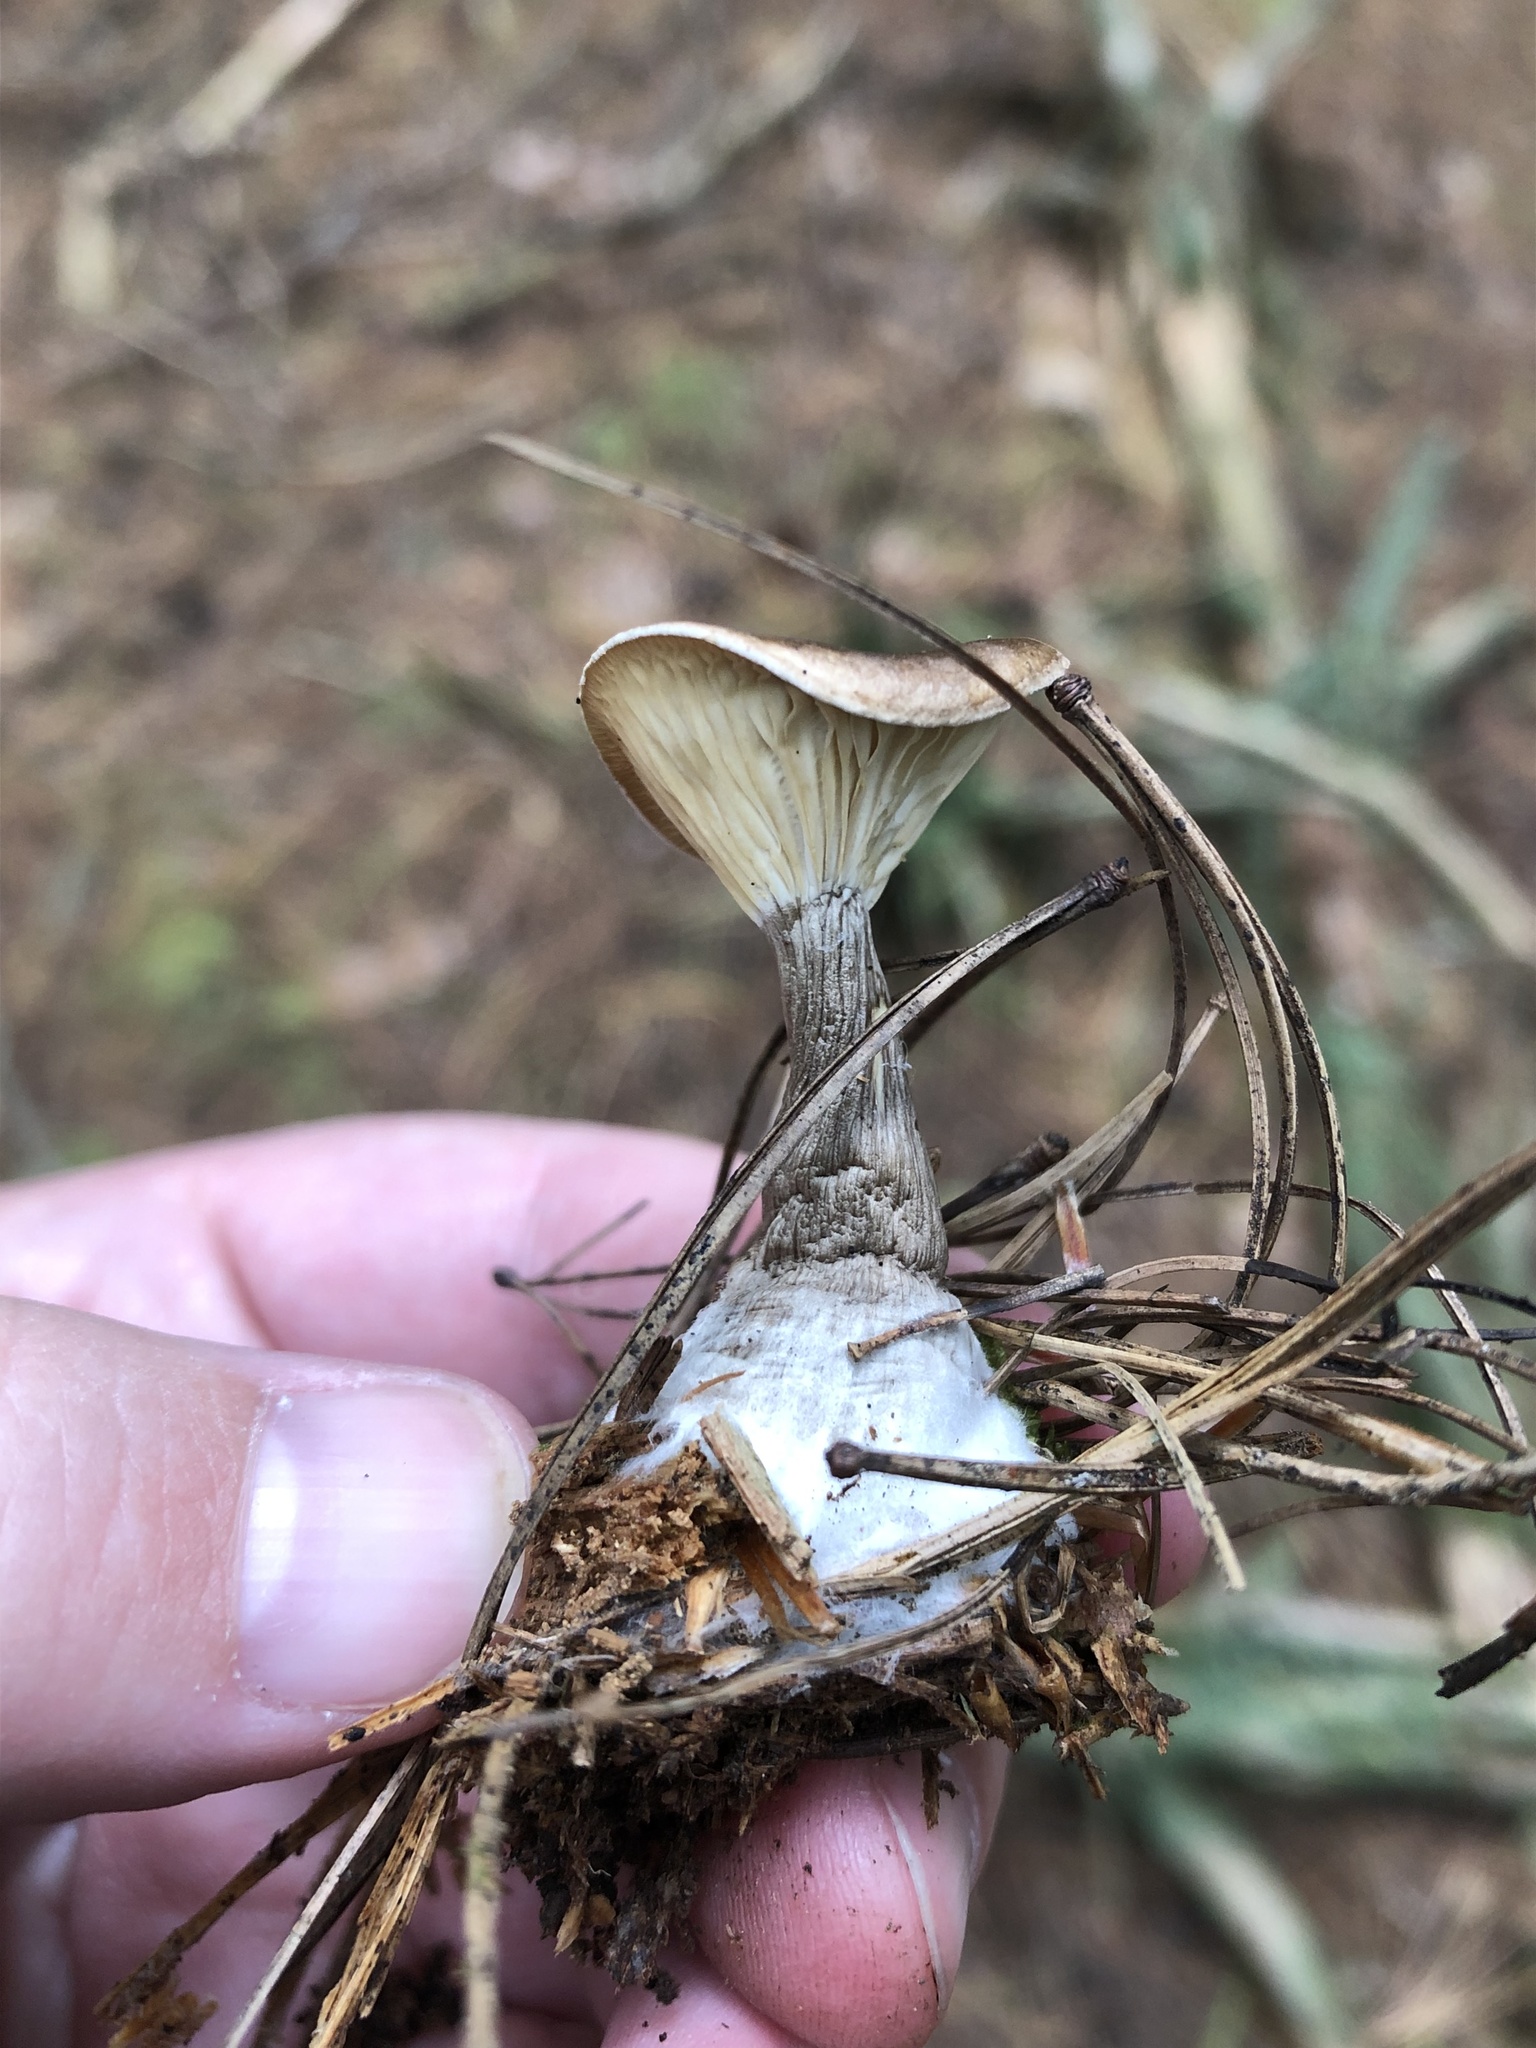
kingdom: Fungi
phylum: Basidiomycota
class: Agaricomycetes
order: Agaricales
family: Hygrophoraceae
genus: Ampulloclitocybe
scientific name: Ampulloclitocybe clavipes
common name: Club foot
